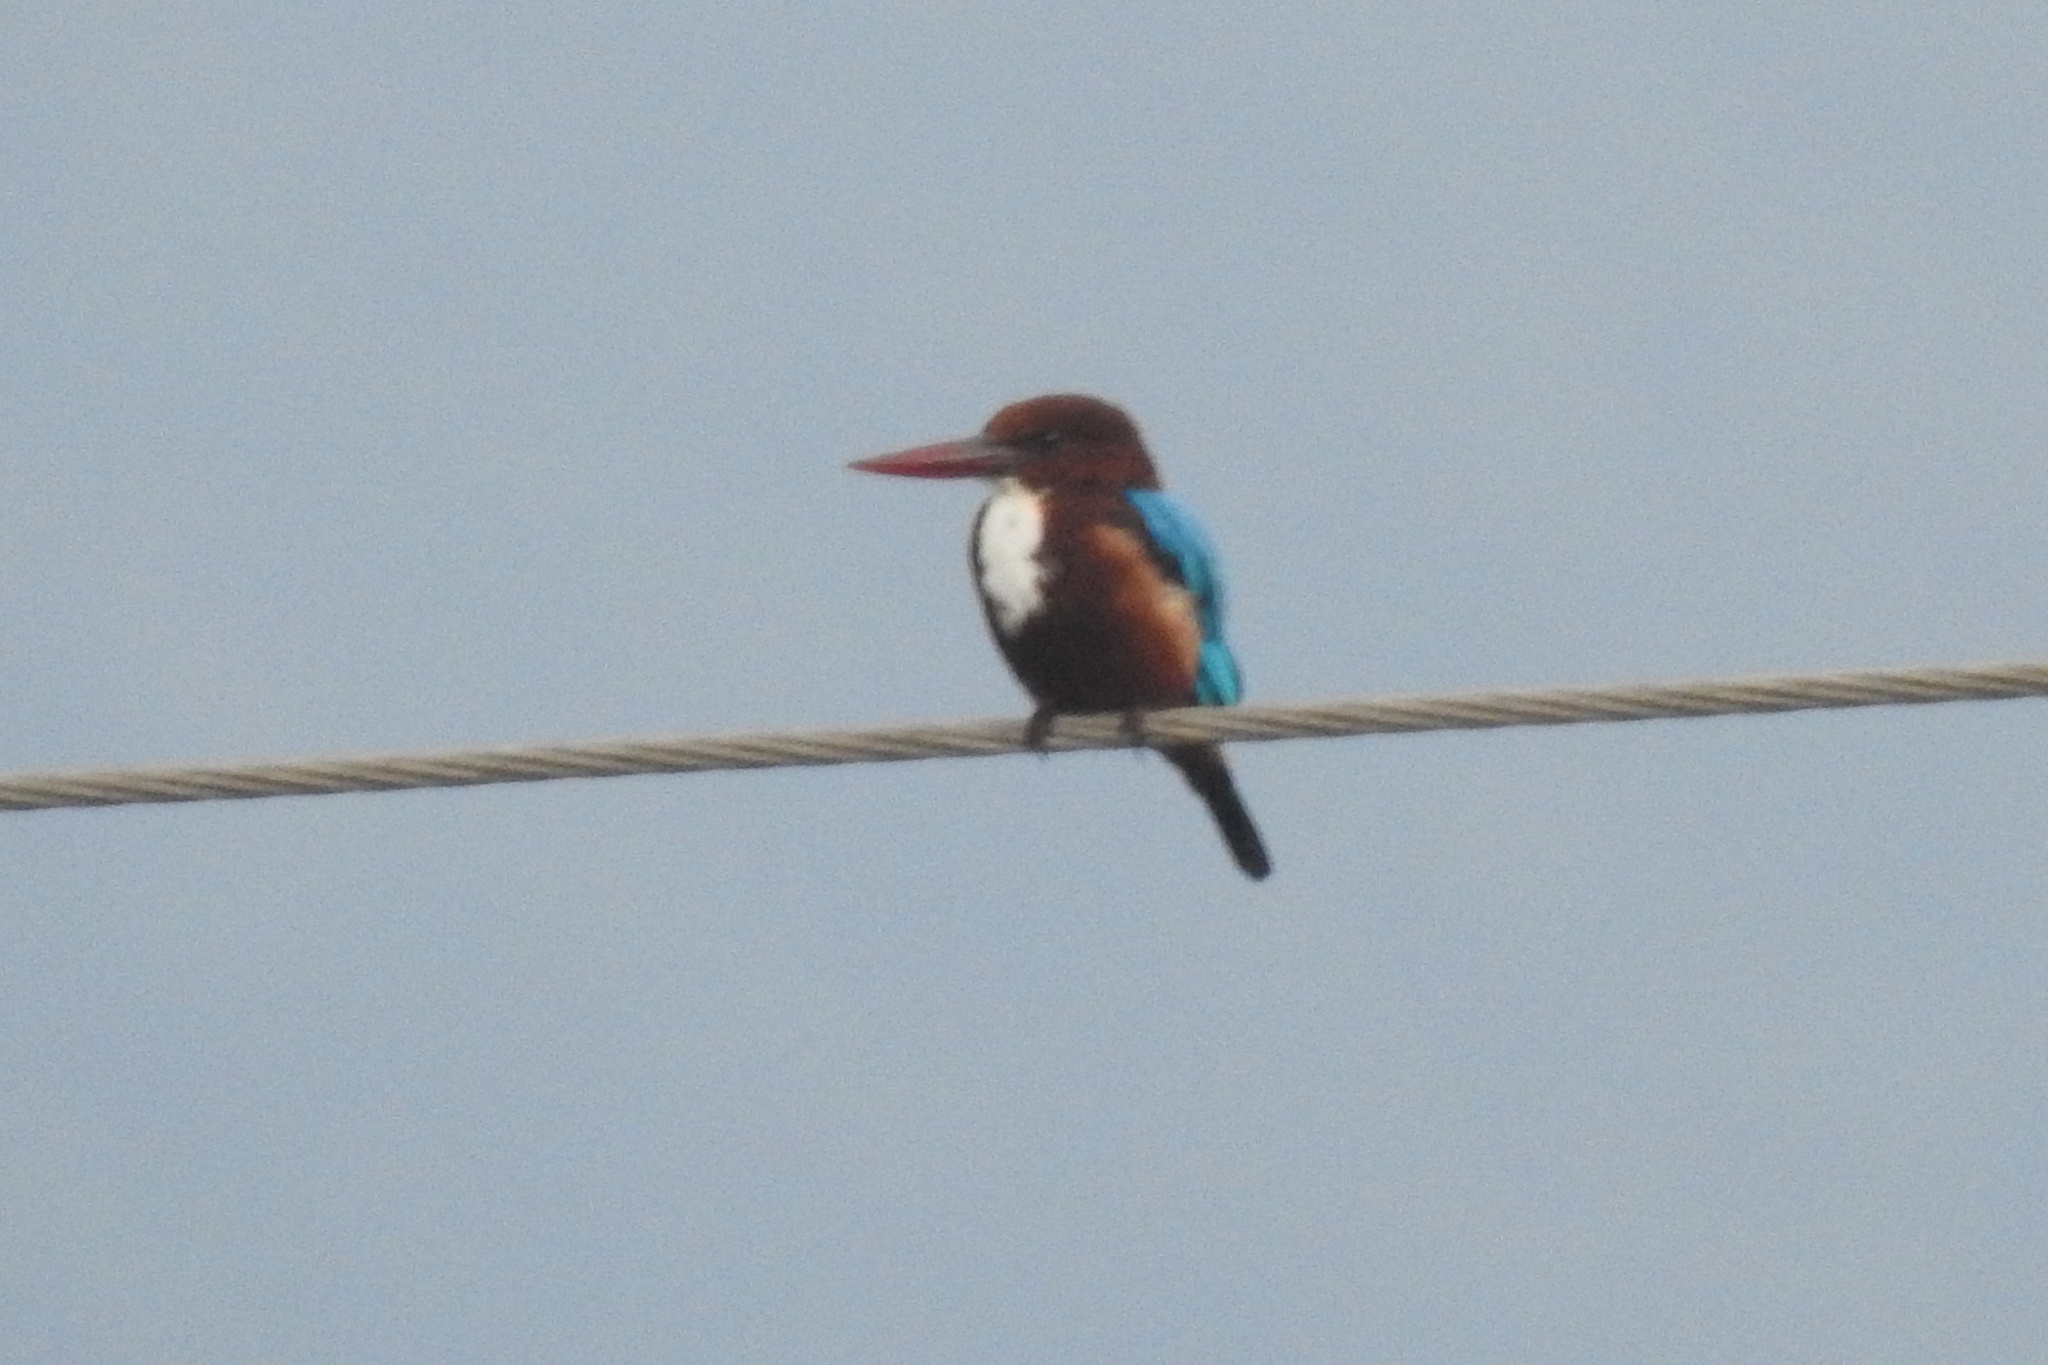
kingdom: Animalia
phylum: Chordata
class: Aves
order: Coraciiformes
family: Alcedinidae
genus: Halcyon
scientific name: Halcyon smyrnensis
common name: White-throated kingfisher
